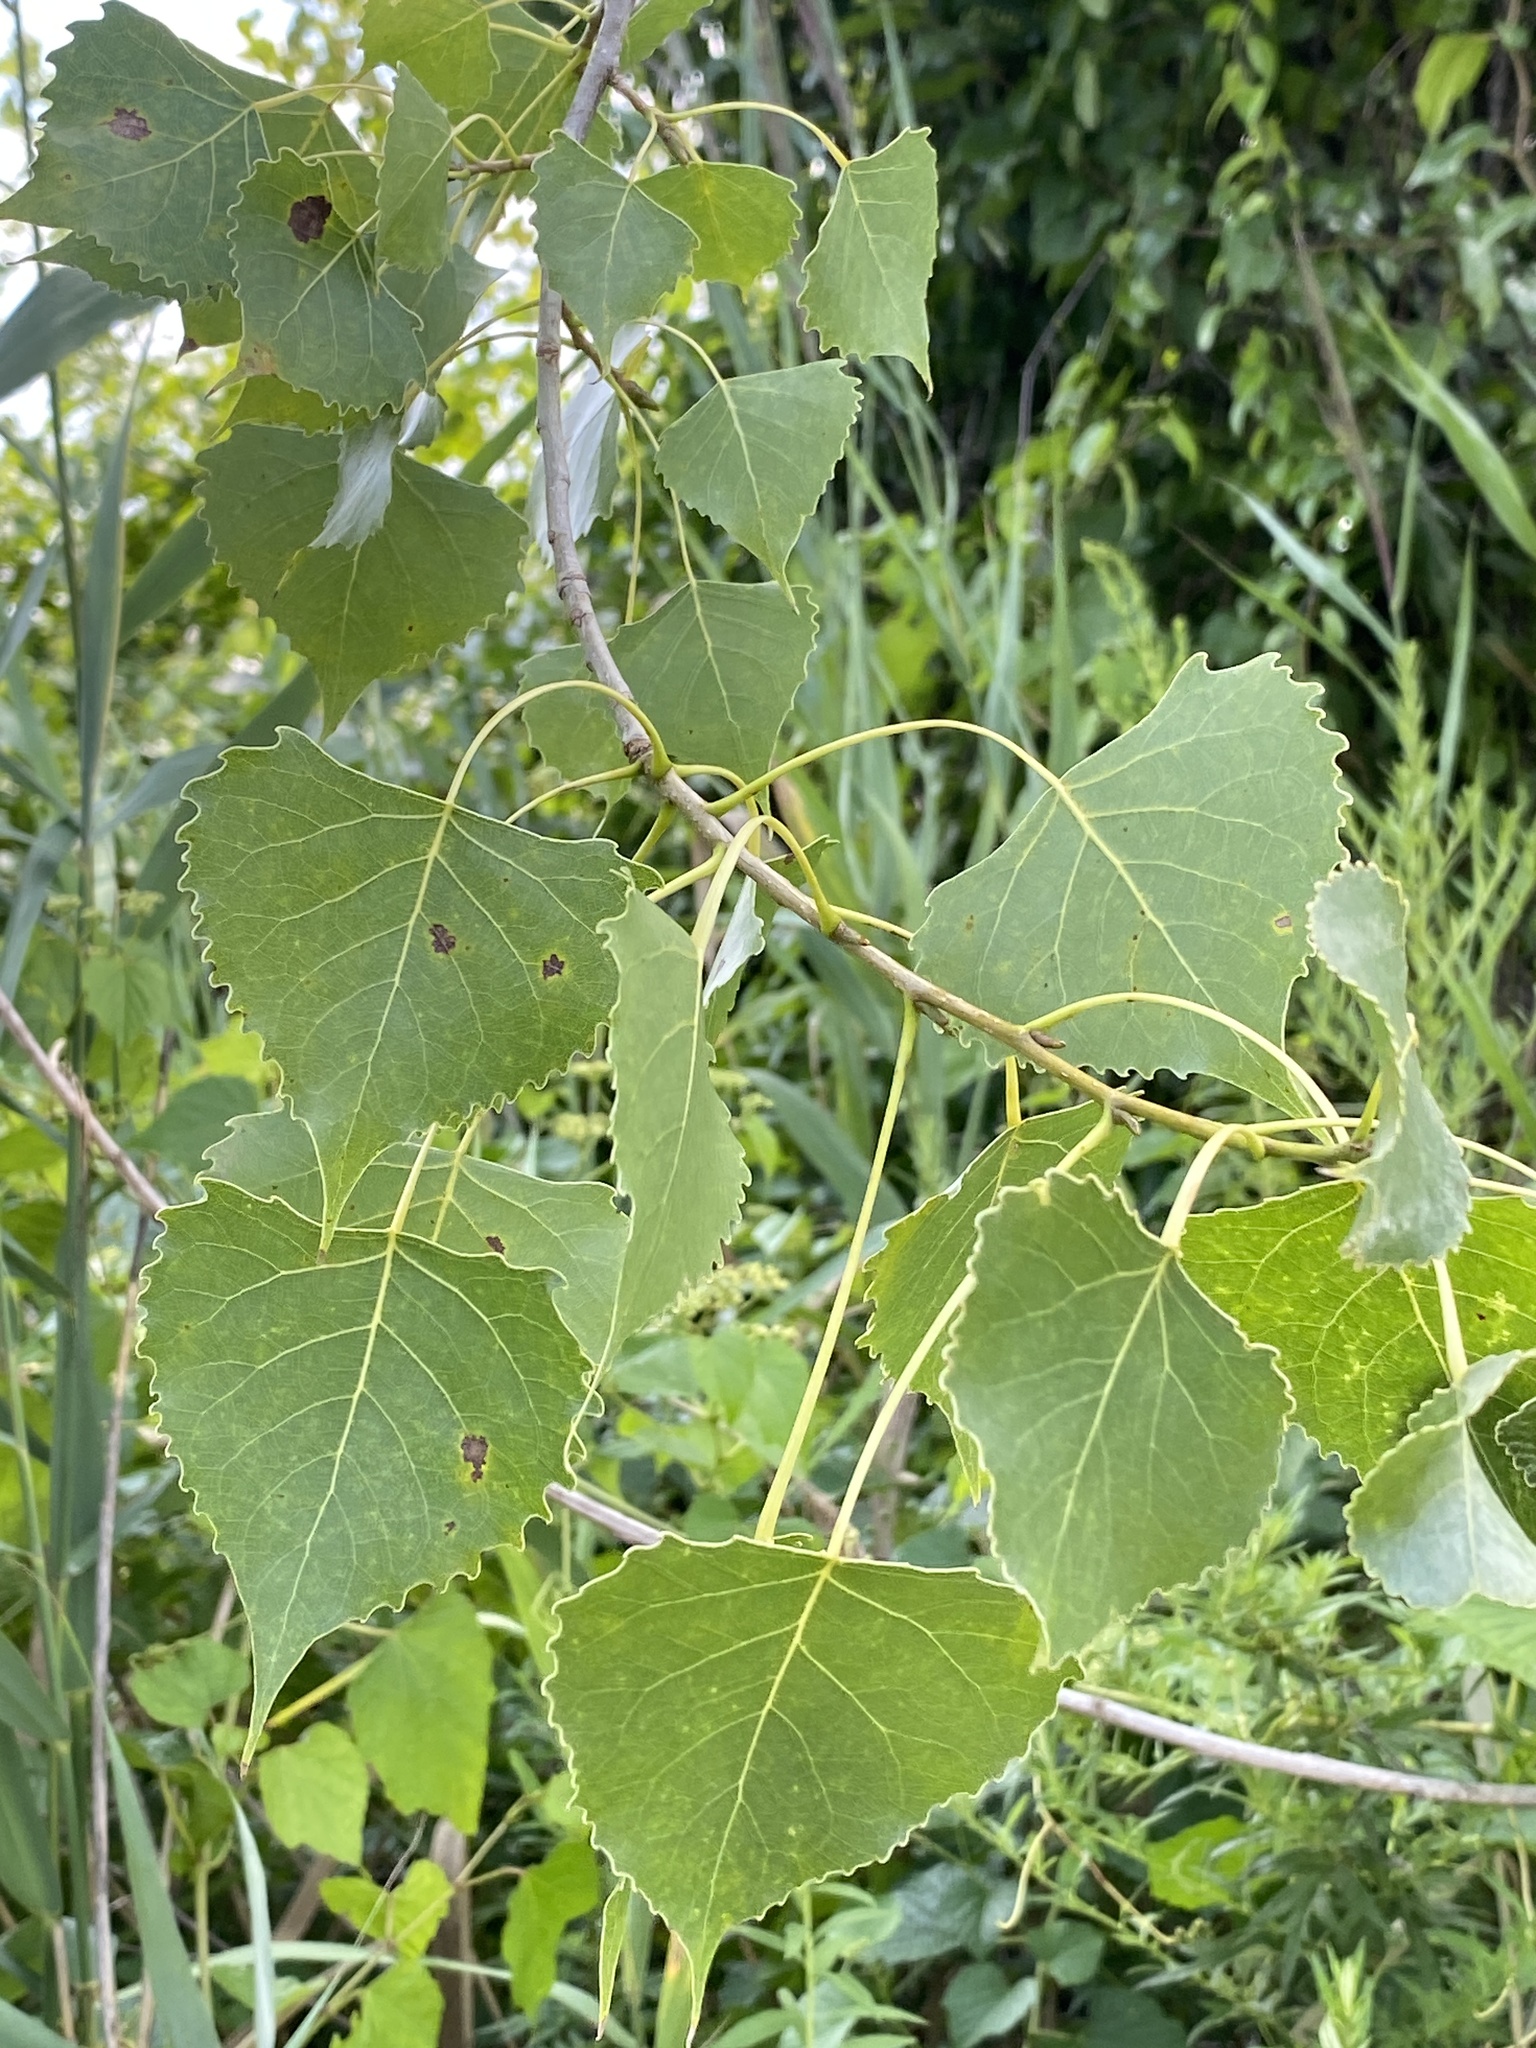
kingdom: Plantae
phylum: Tracheophyta
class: Magnoliopsida
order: Malpighiales
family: Salicaceae
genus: Populus
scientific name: Populus deltoides
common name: Eastern cottonwood
